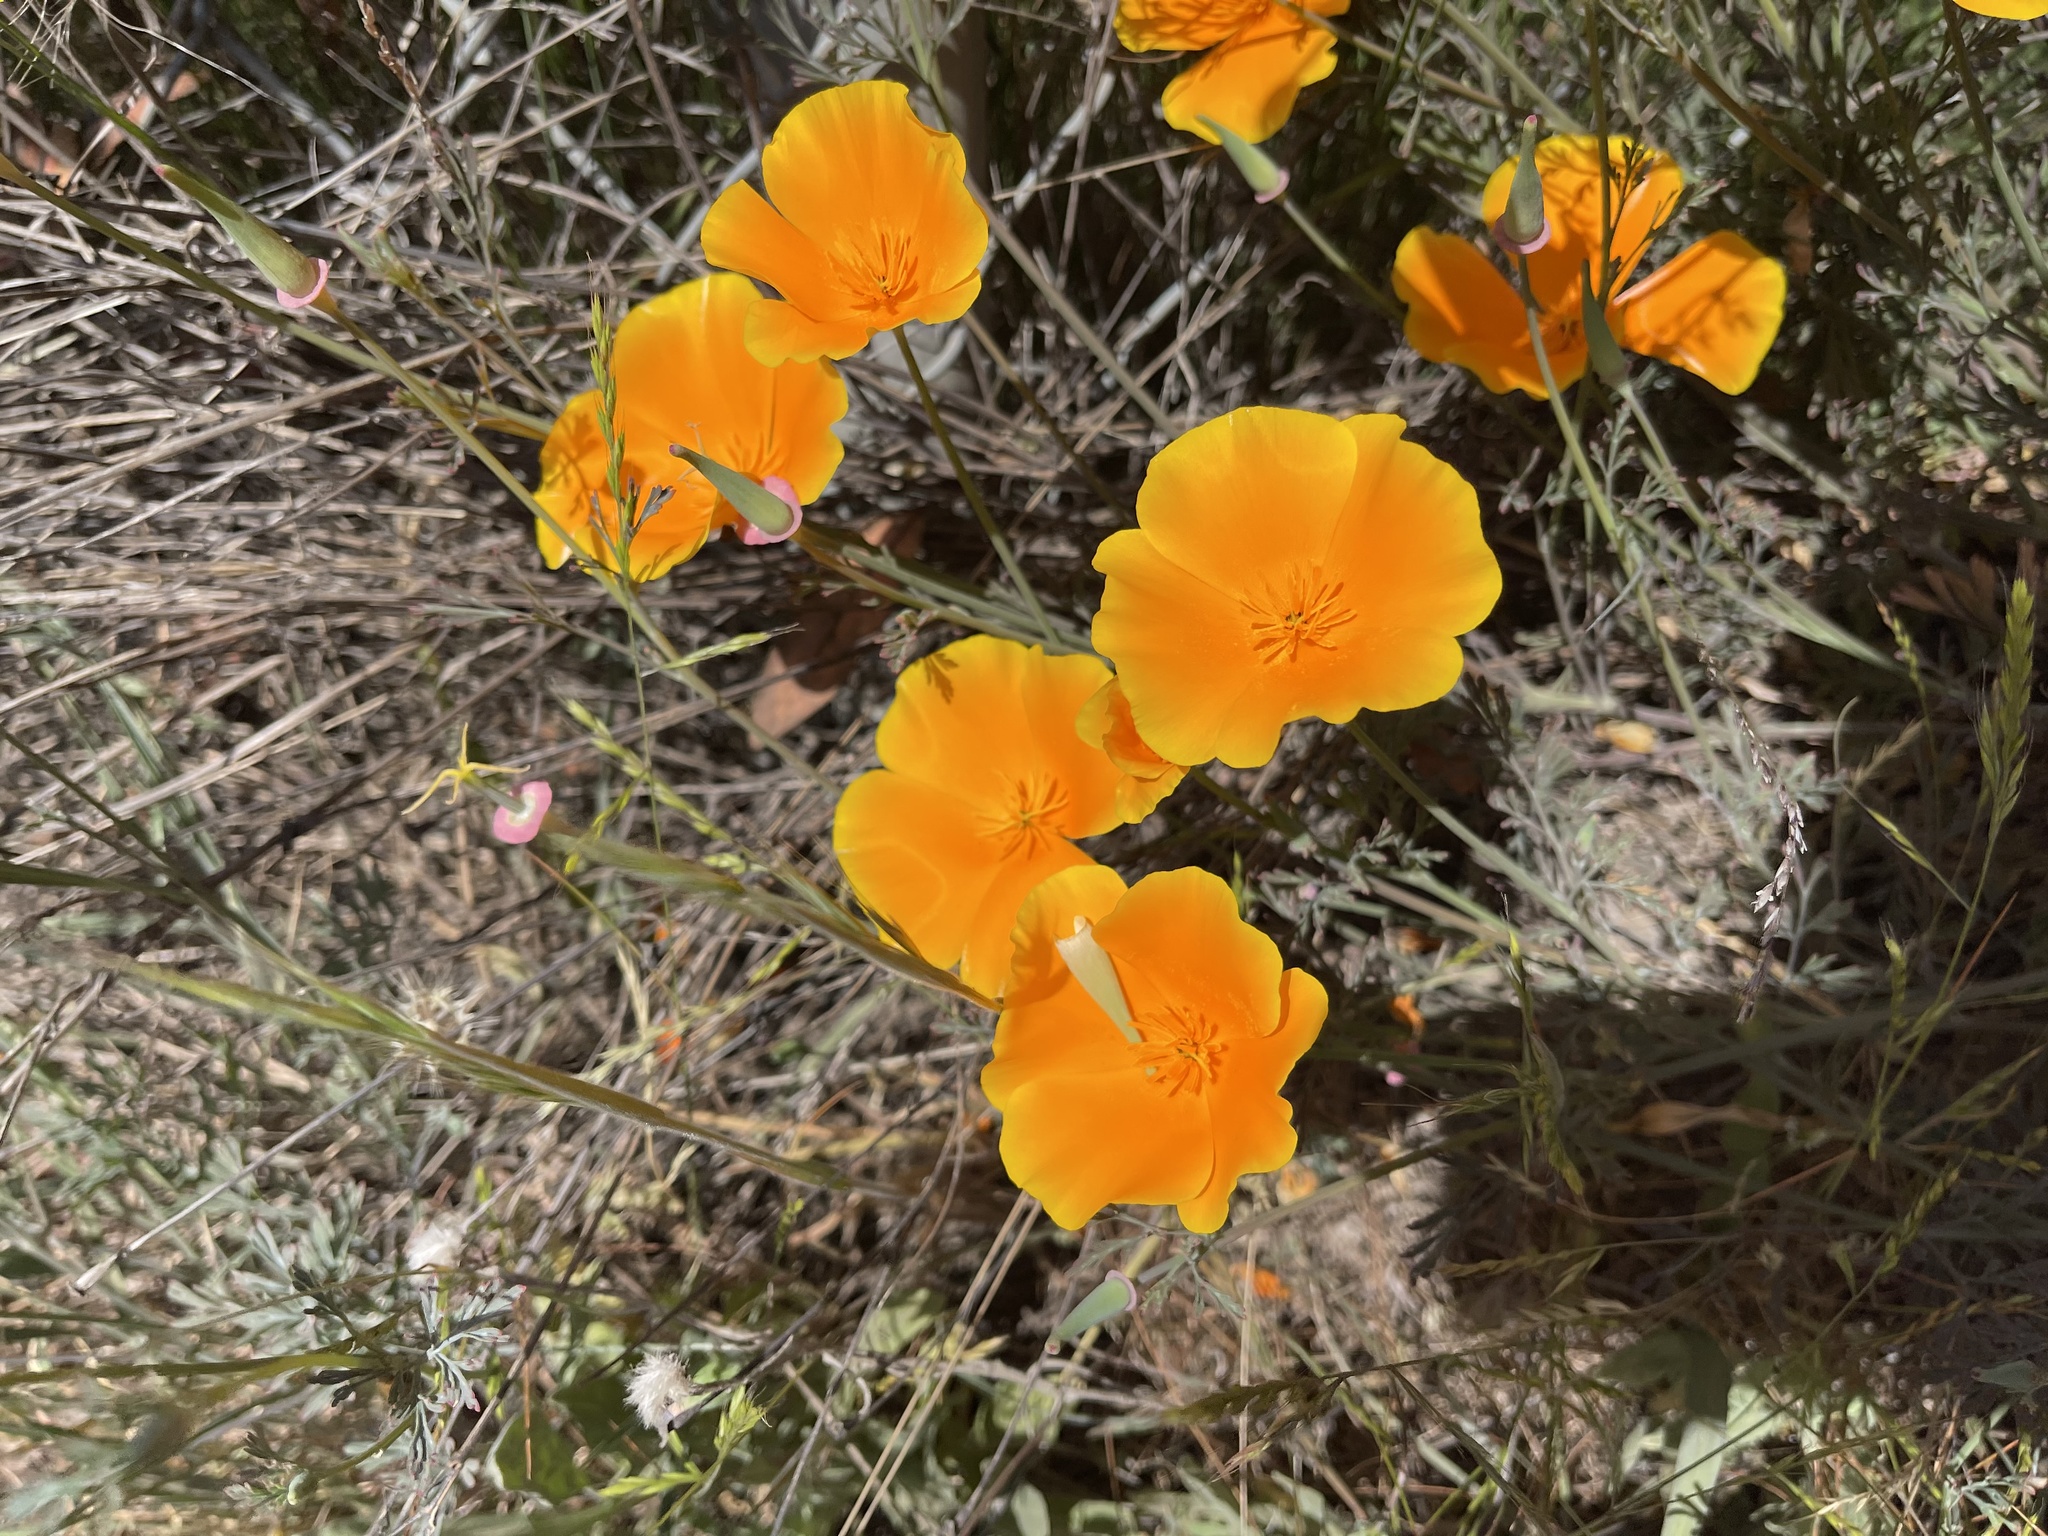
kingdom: Plantae
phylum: Tracheophyta
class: Magnoliopsida
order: Ranunculales
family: Papaveraceae
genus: Eschscholzia
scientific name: Eschscholzia californica
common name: California poppy
